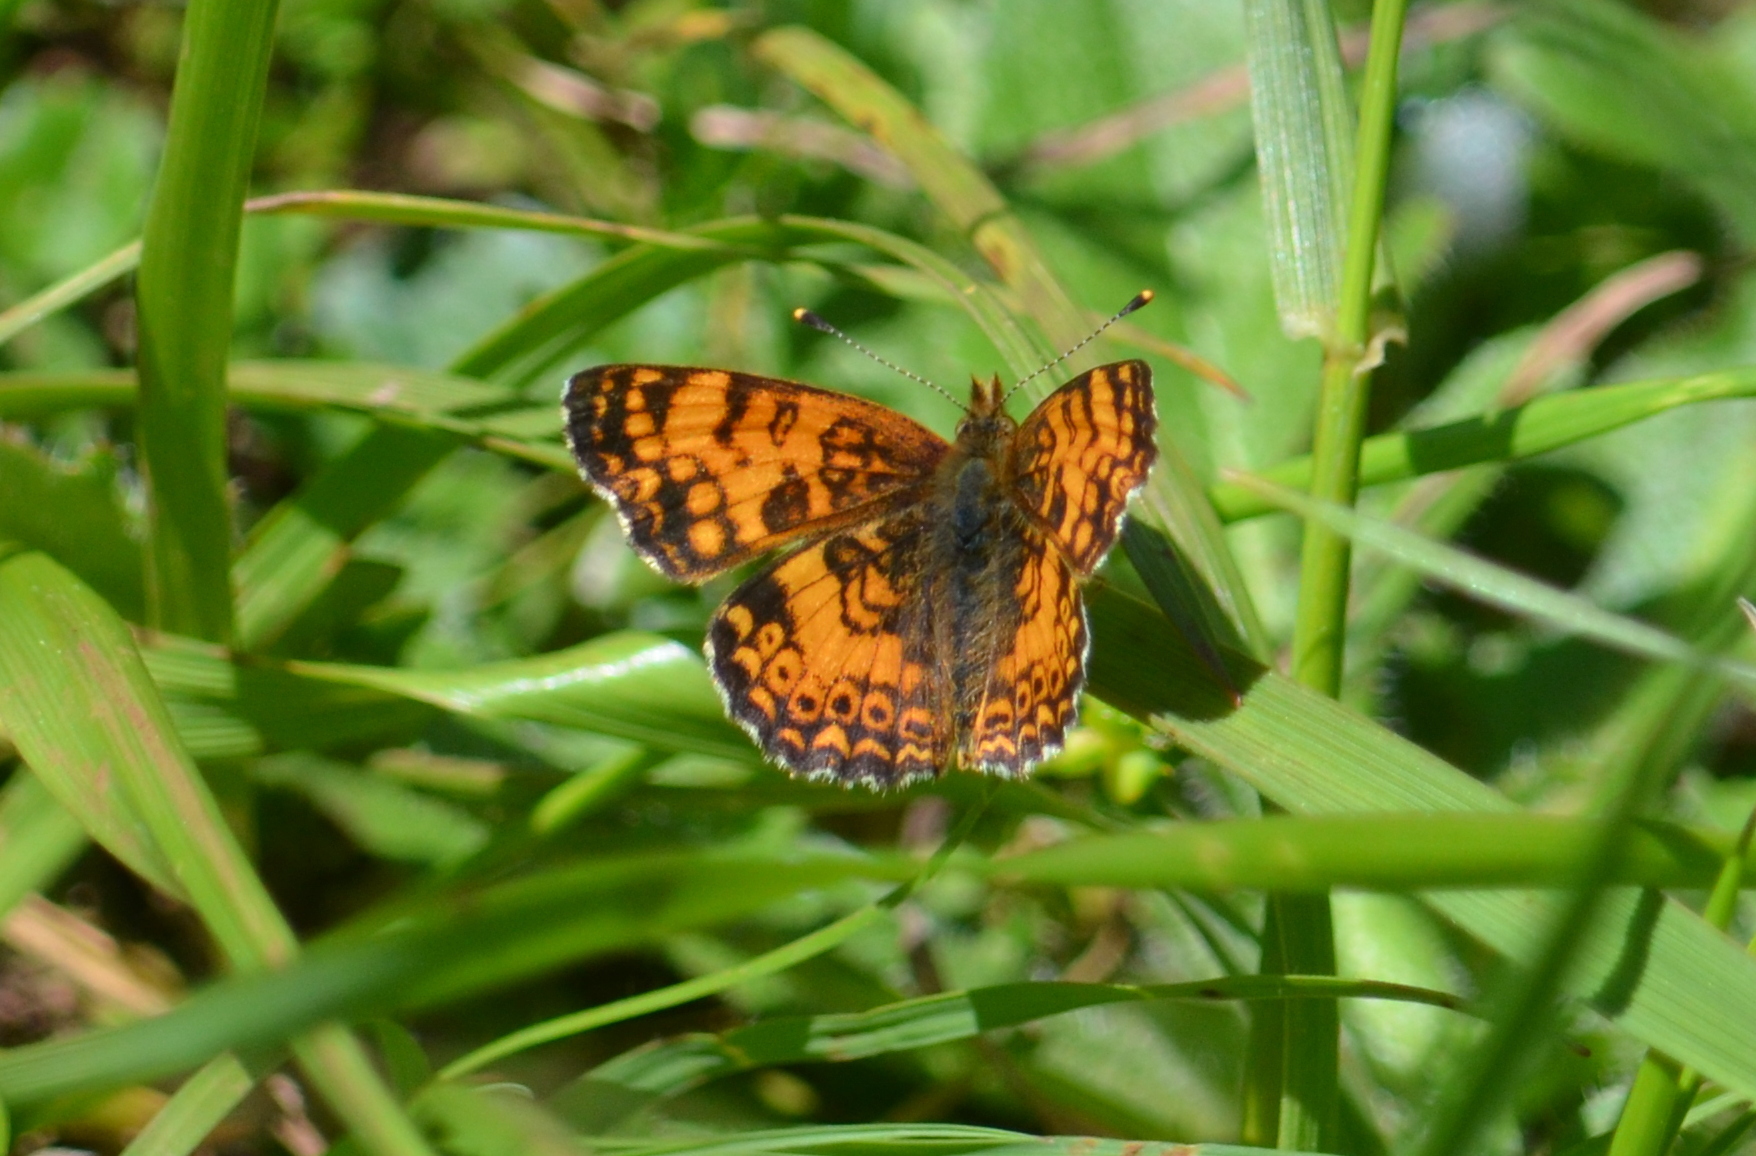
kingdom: Animalia
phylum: Arthropoda
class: Insecta
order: Lepidoptera
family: Nymphalidae
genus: Eresia
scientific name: Eresia aveyrona
